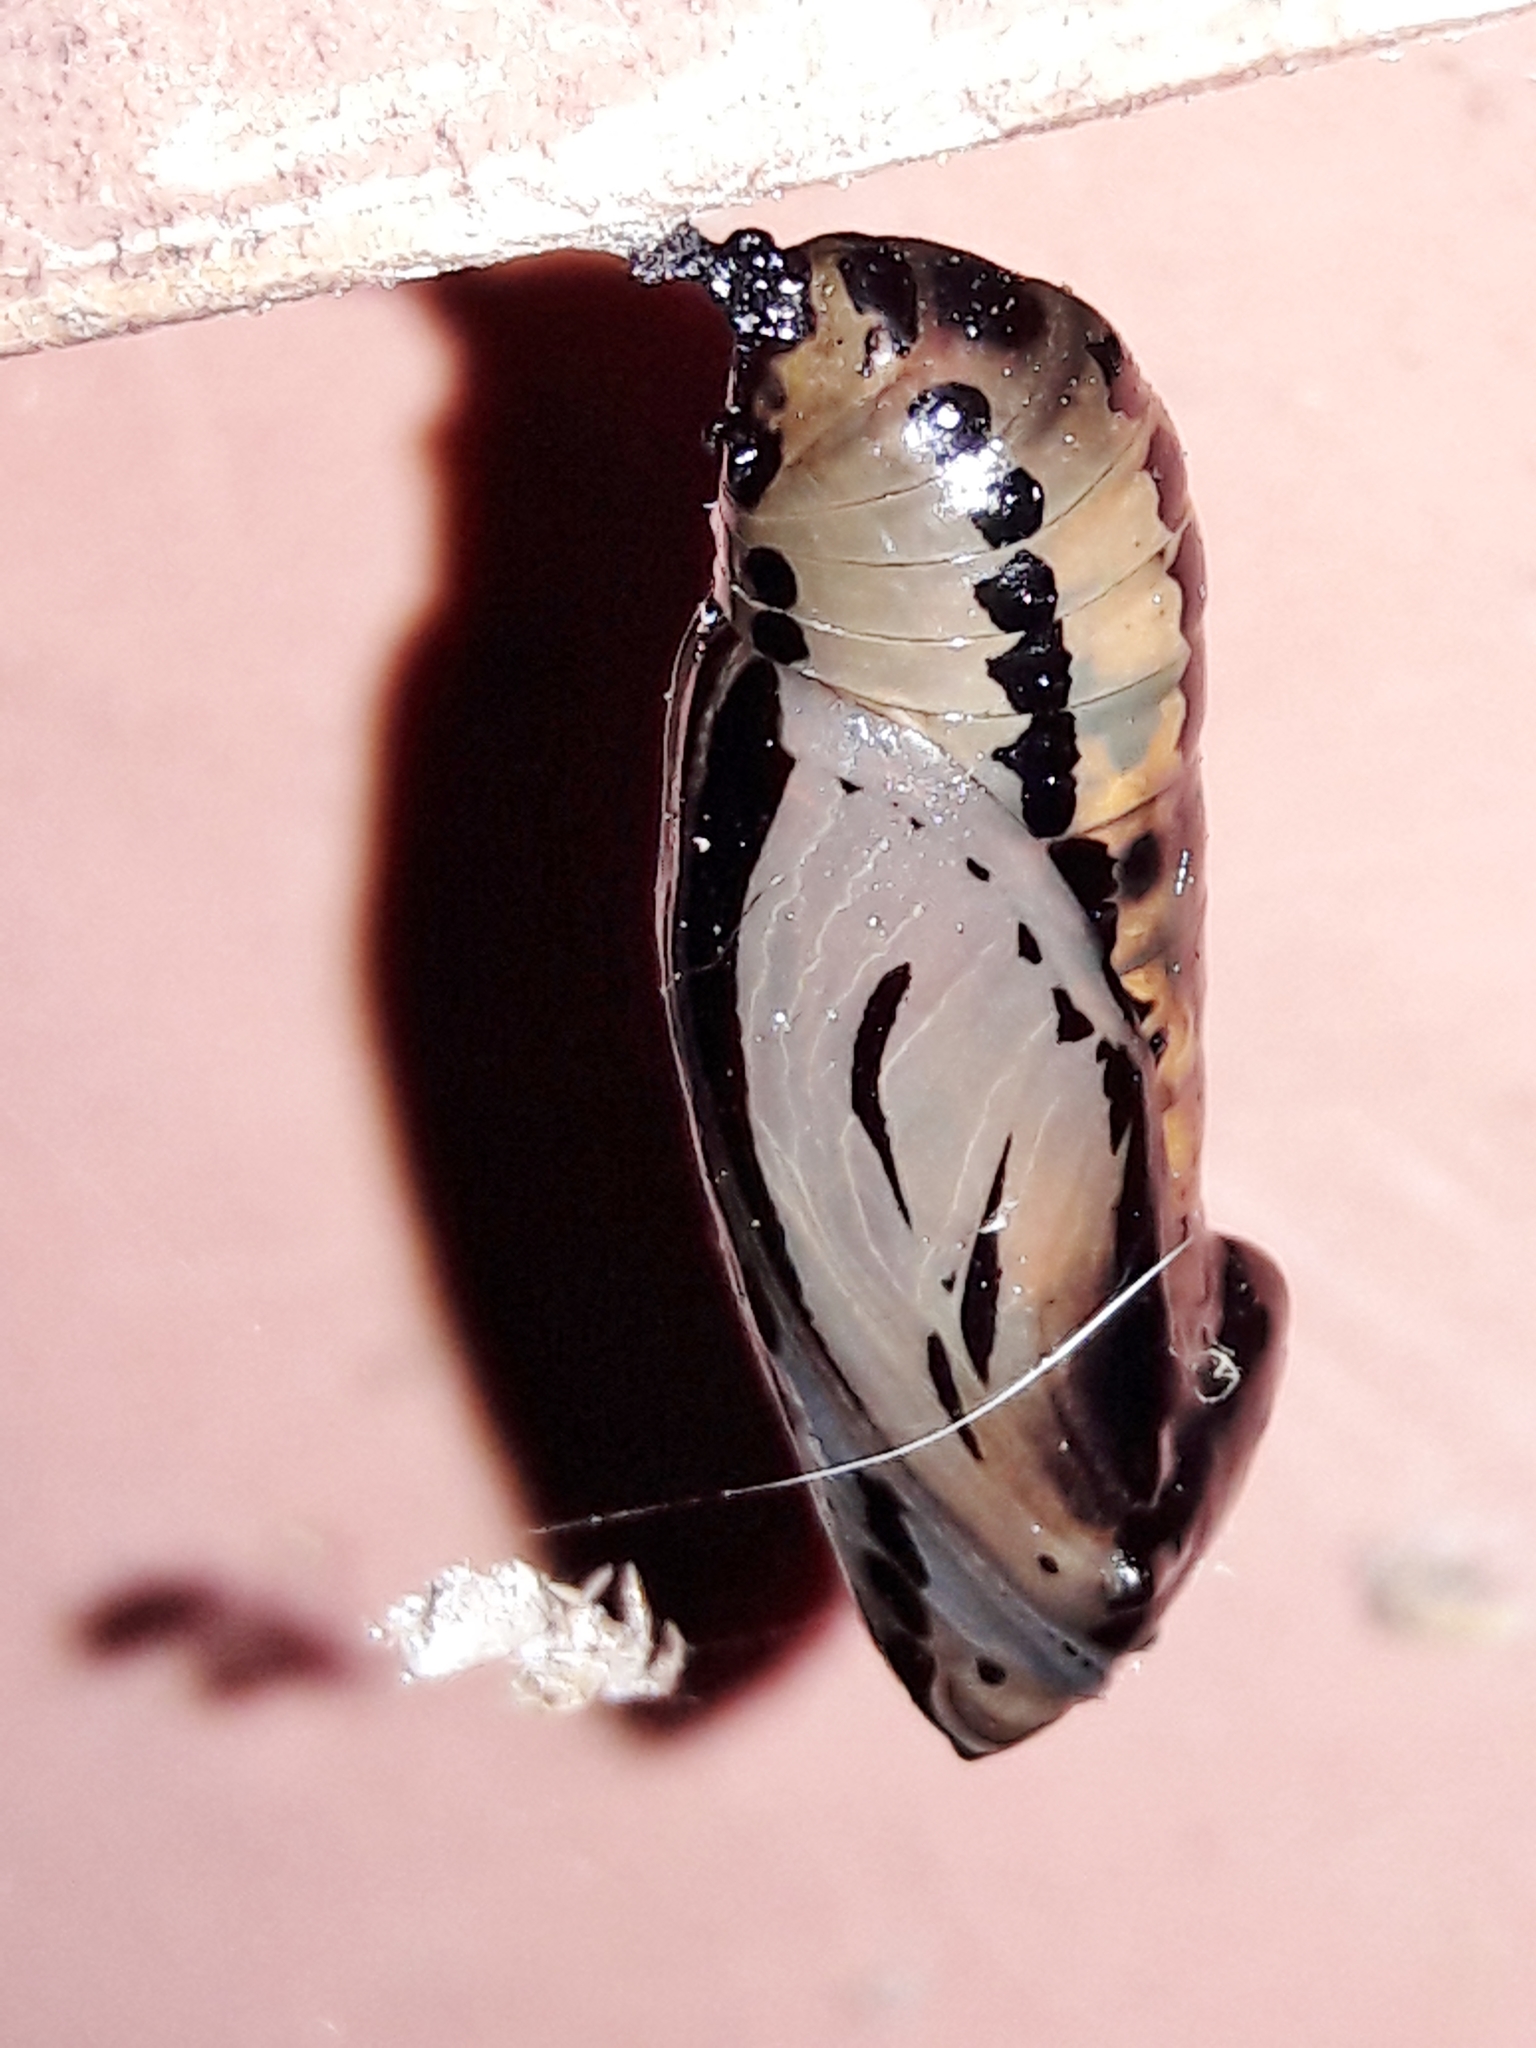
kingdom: Animalia
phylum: Arthropoda
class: Insecta
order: Lepidoptera
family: Nymphalidae
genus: Methona
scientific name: Methona themisto
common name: Themisto amberwing
